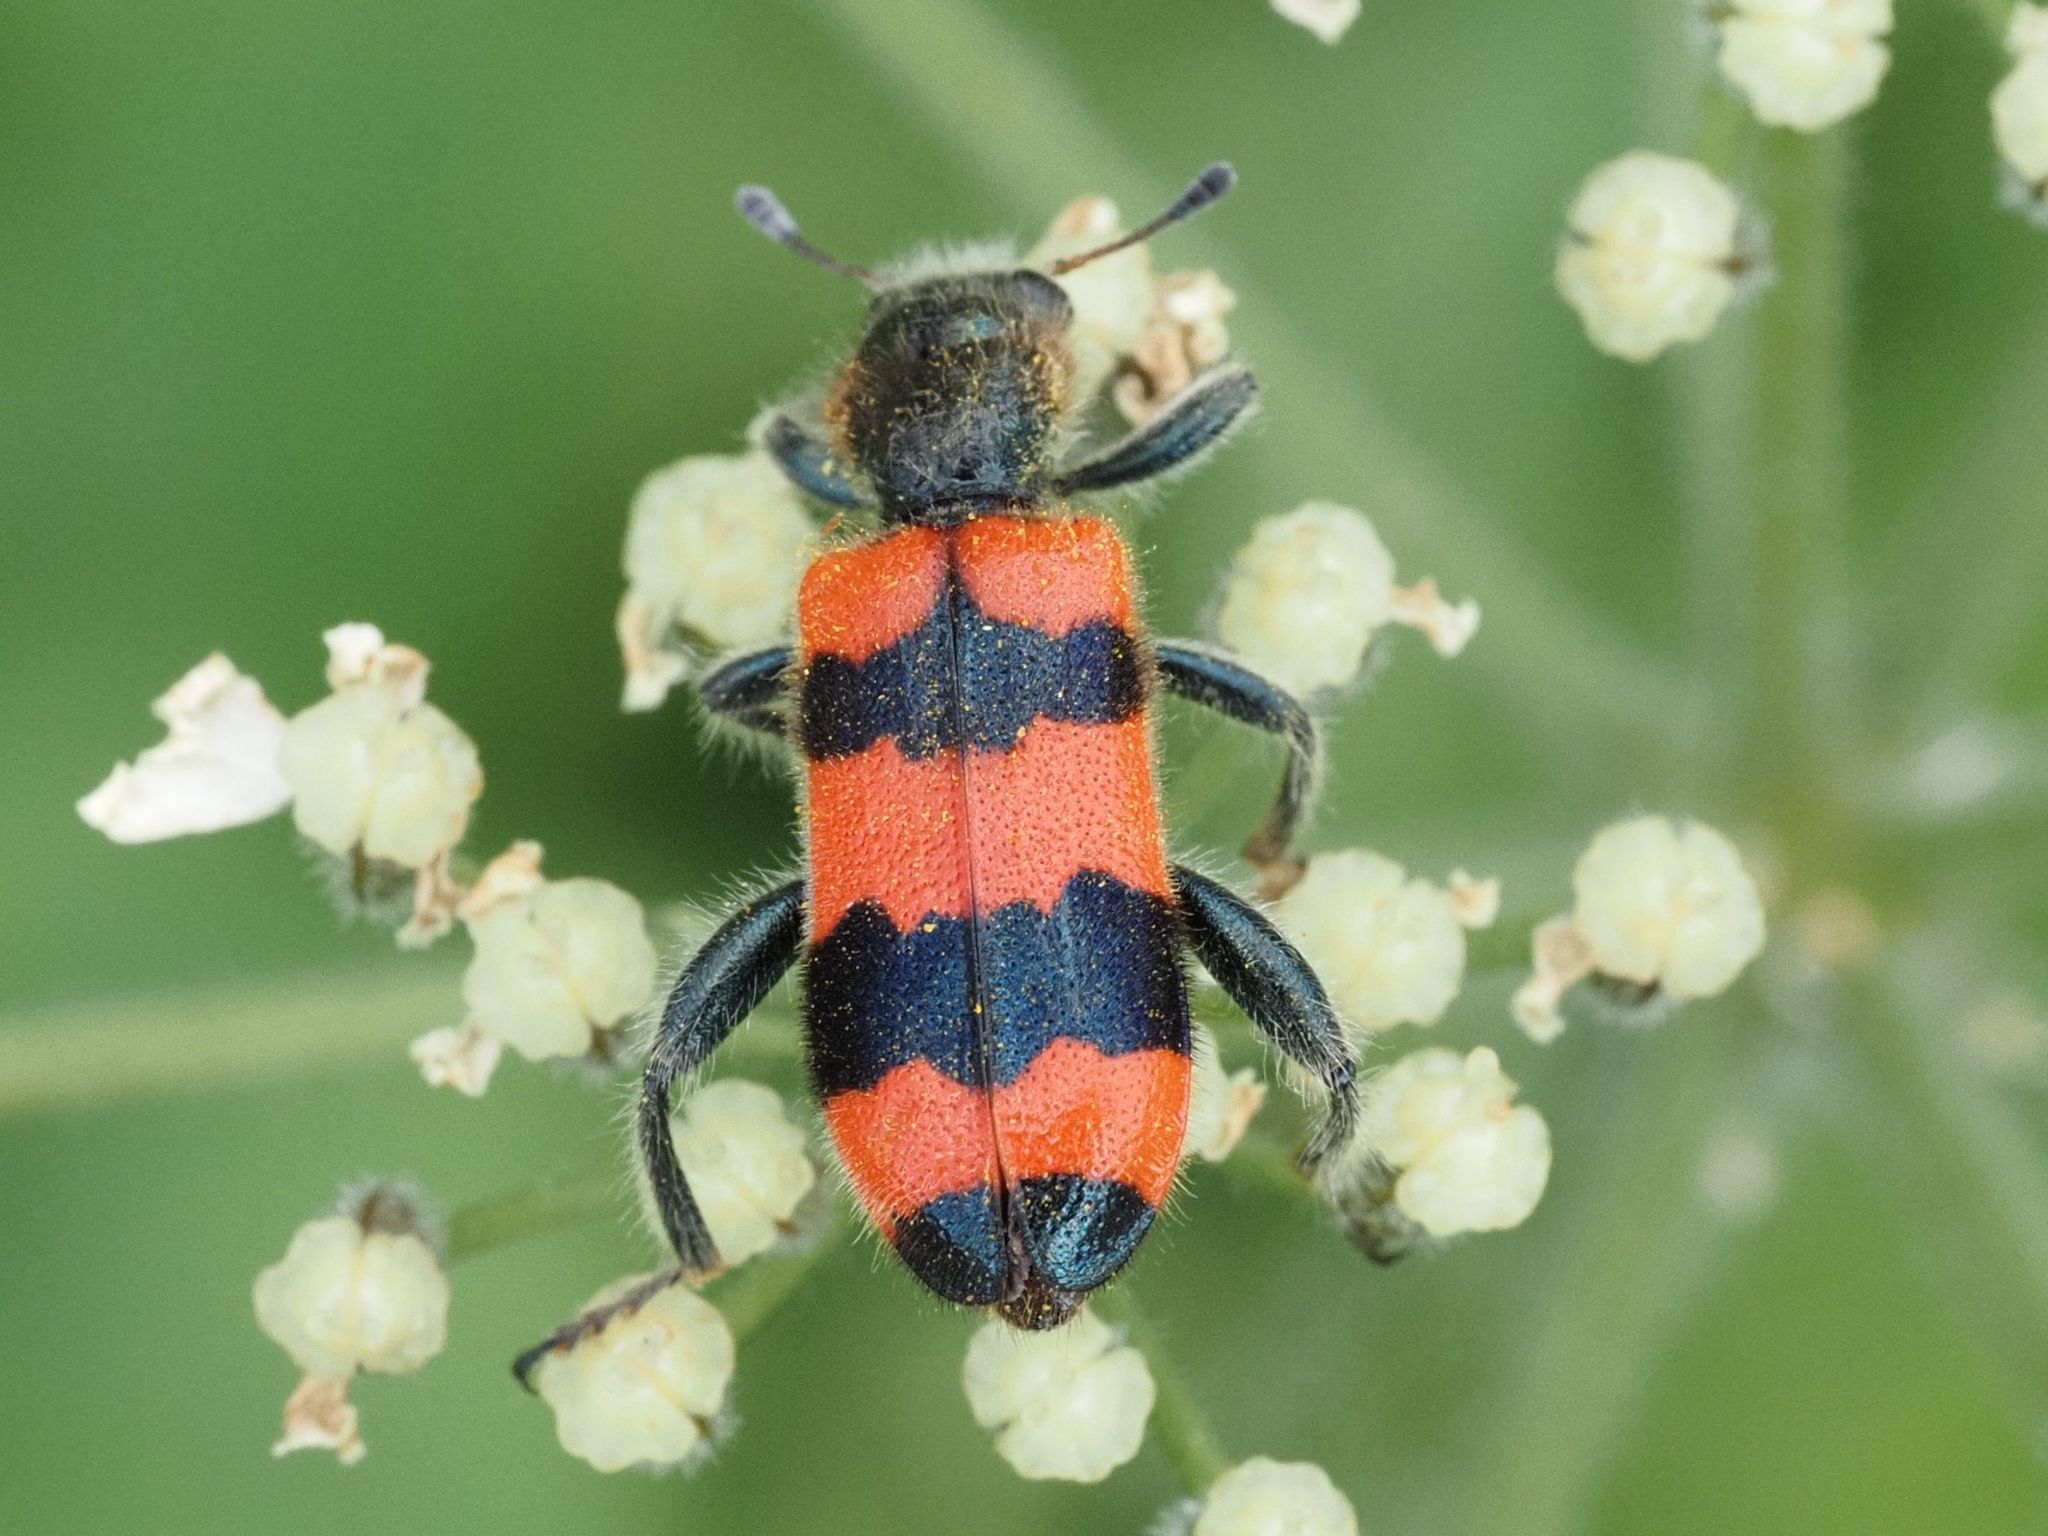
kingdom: Animalia
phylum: Arthropoda
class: Insecta
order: Coleoptera
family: Cleridae
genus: Trichodes
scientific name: Trichodes apiarius
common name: Bee-eating beetle
